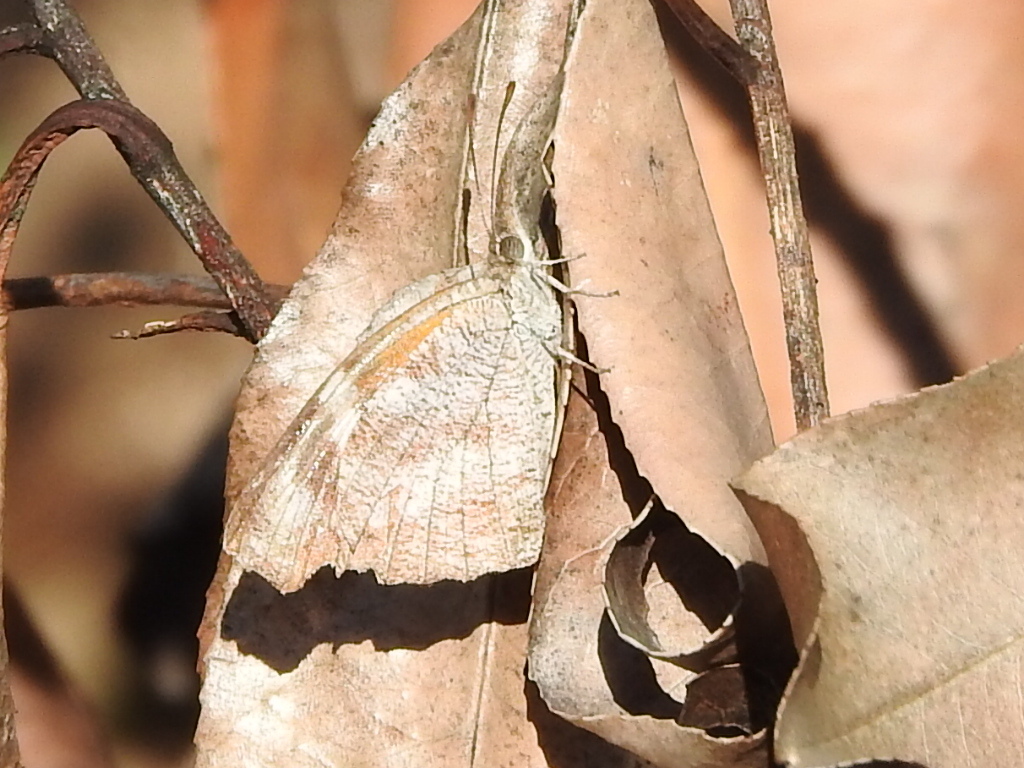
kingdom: Animalia
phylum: Arthropoda
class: Insecta
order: Lepidoptera
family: Nymphalidae
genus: Libytheana
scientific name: Libytheana carinenta
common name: American snout
